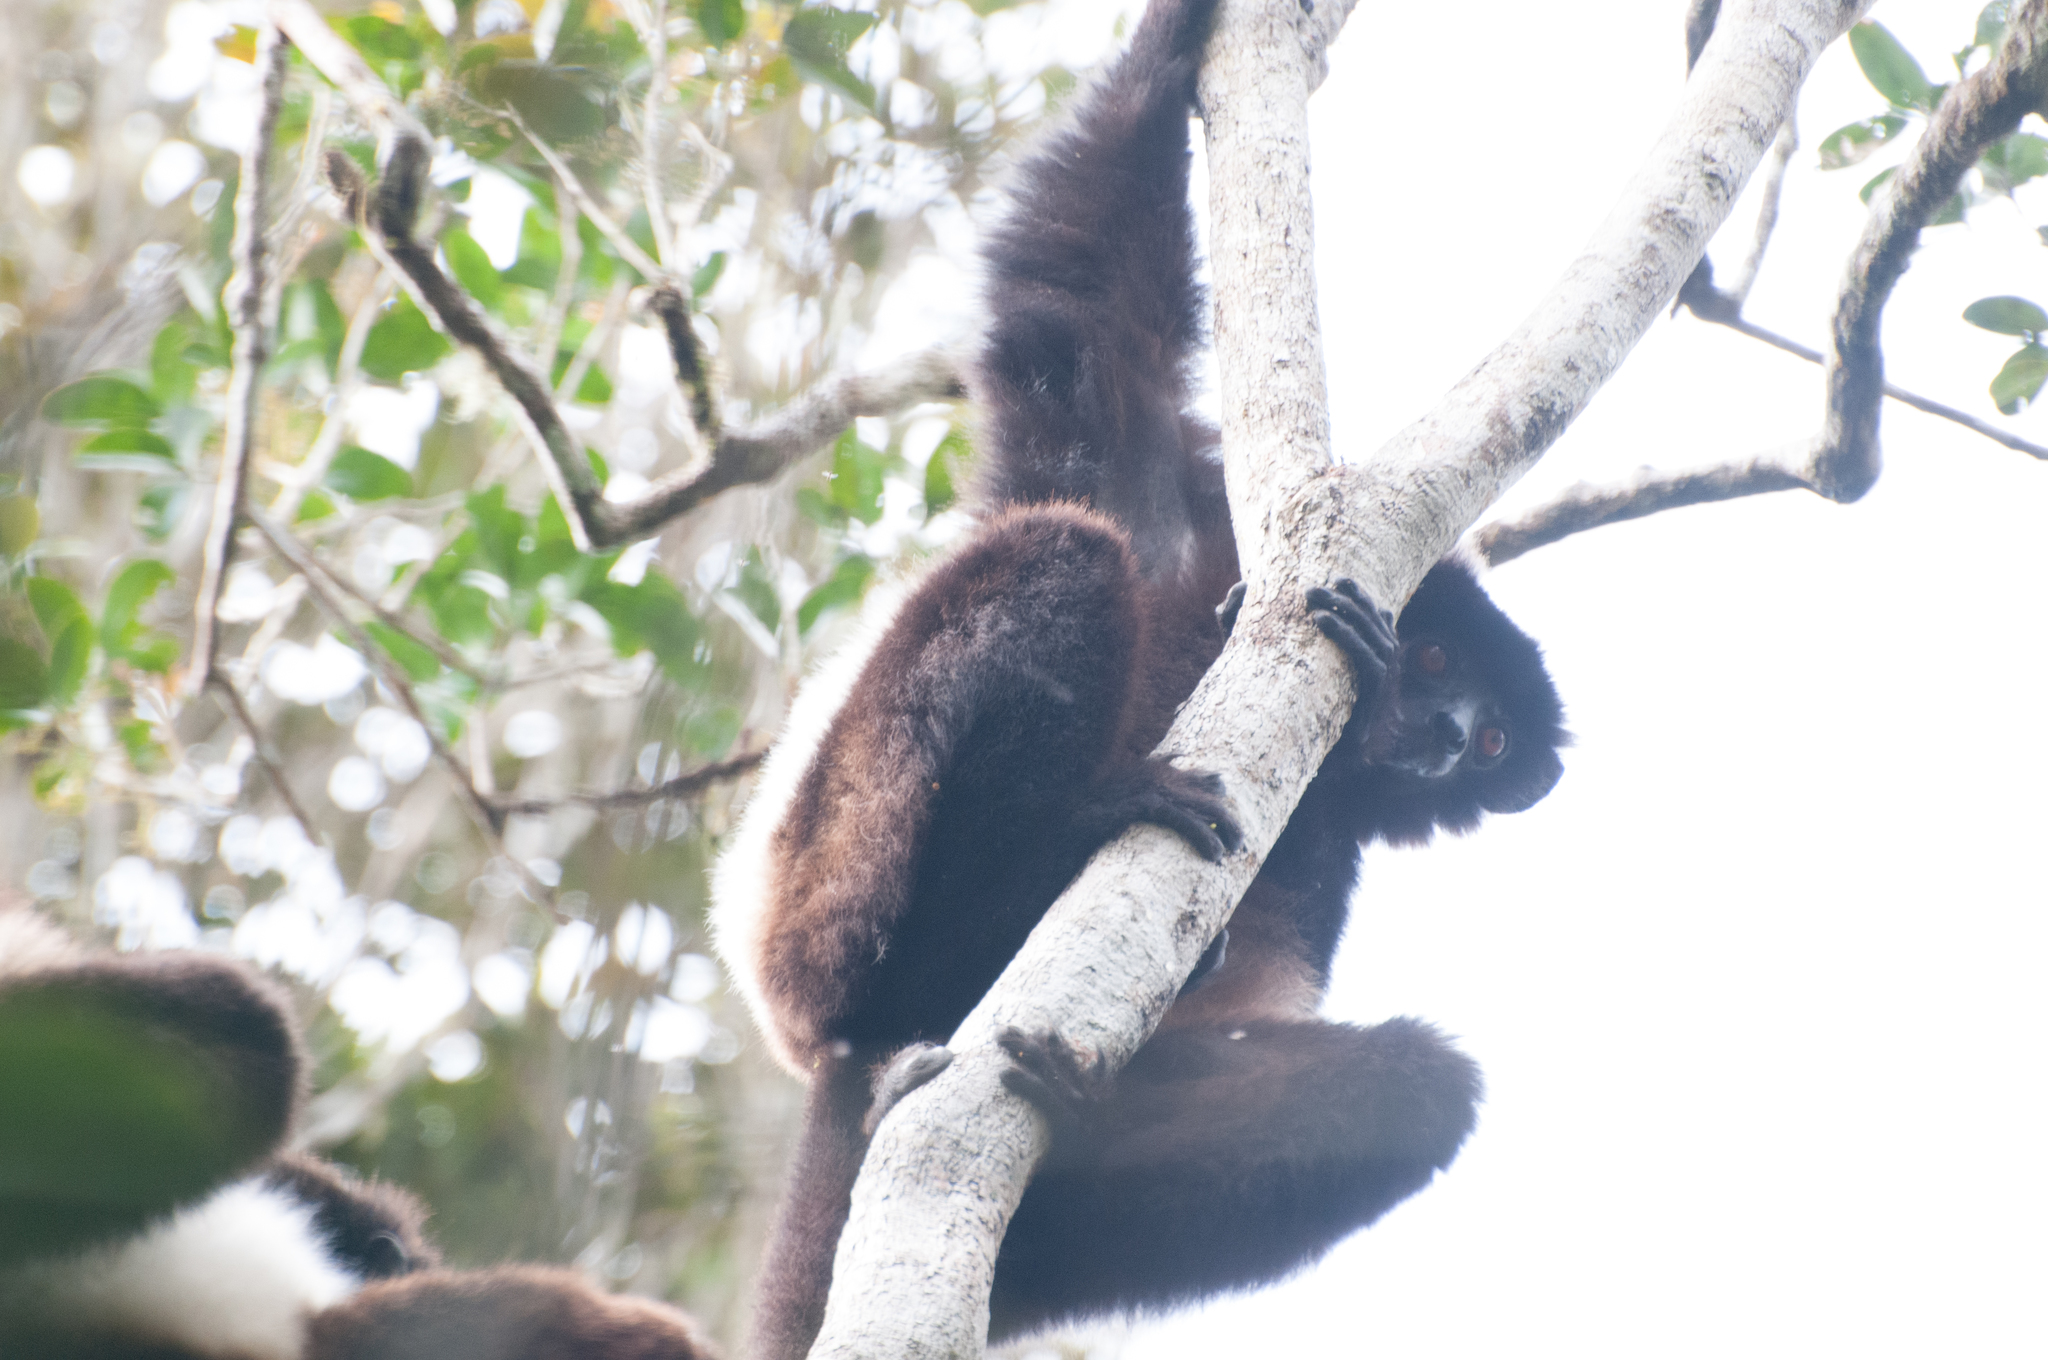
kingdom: Animalia
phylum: Chordata
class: Mammalia
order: Primates
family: Indriidae
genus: Propithecus
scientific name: Propithecus edwardsi
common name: Milne-edwards’s simpona
